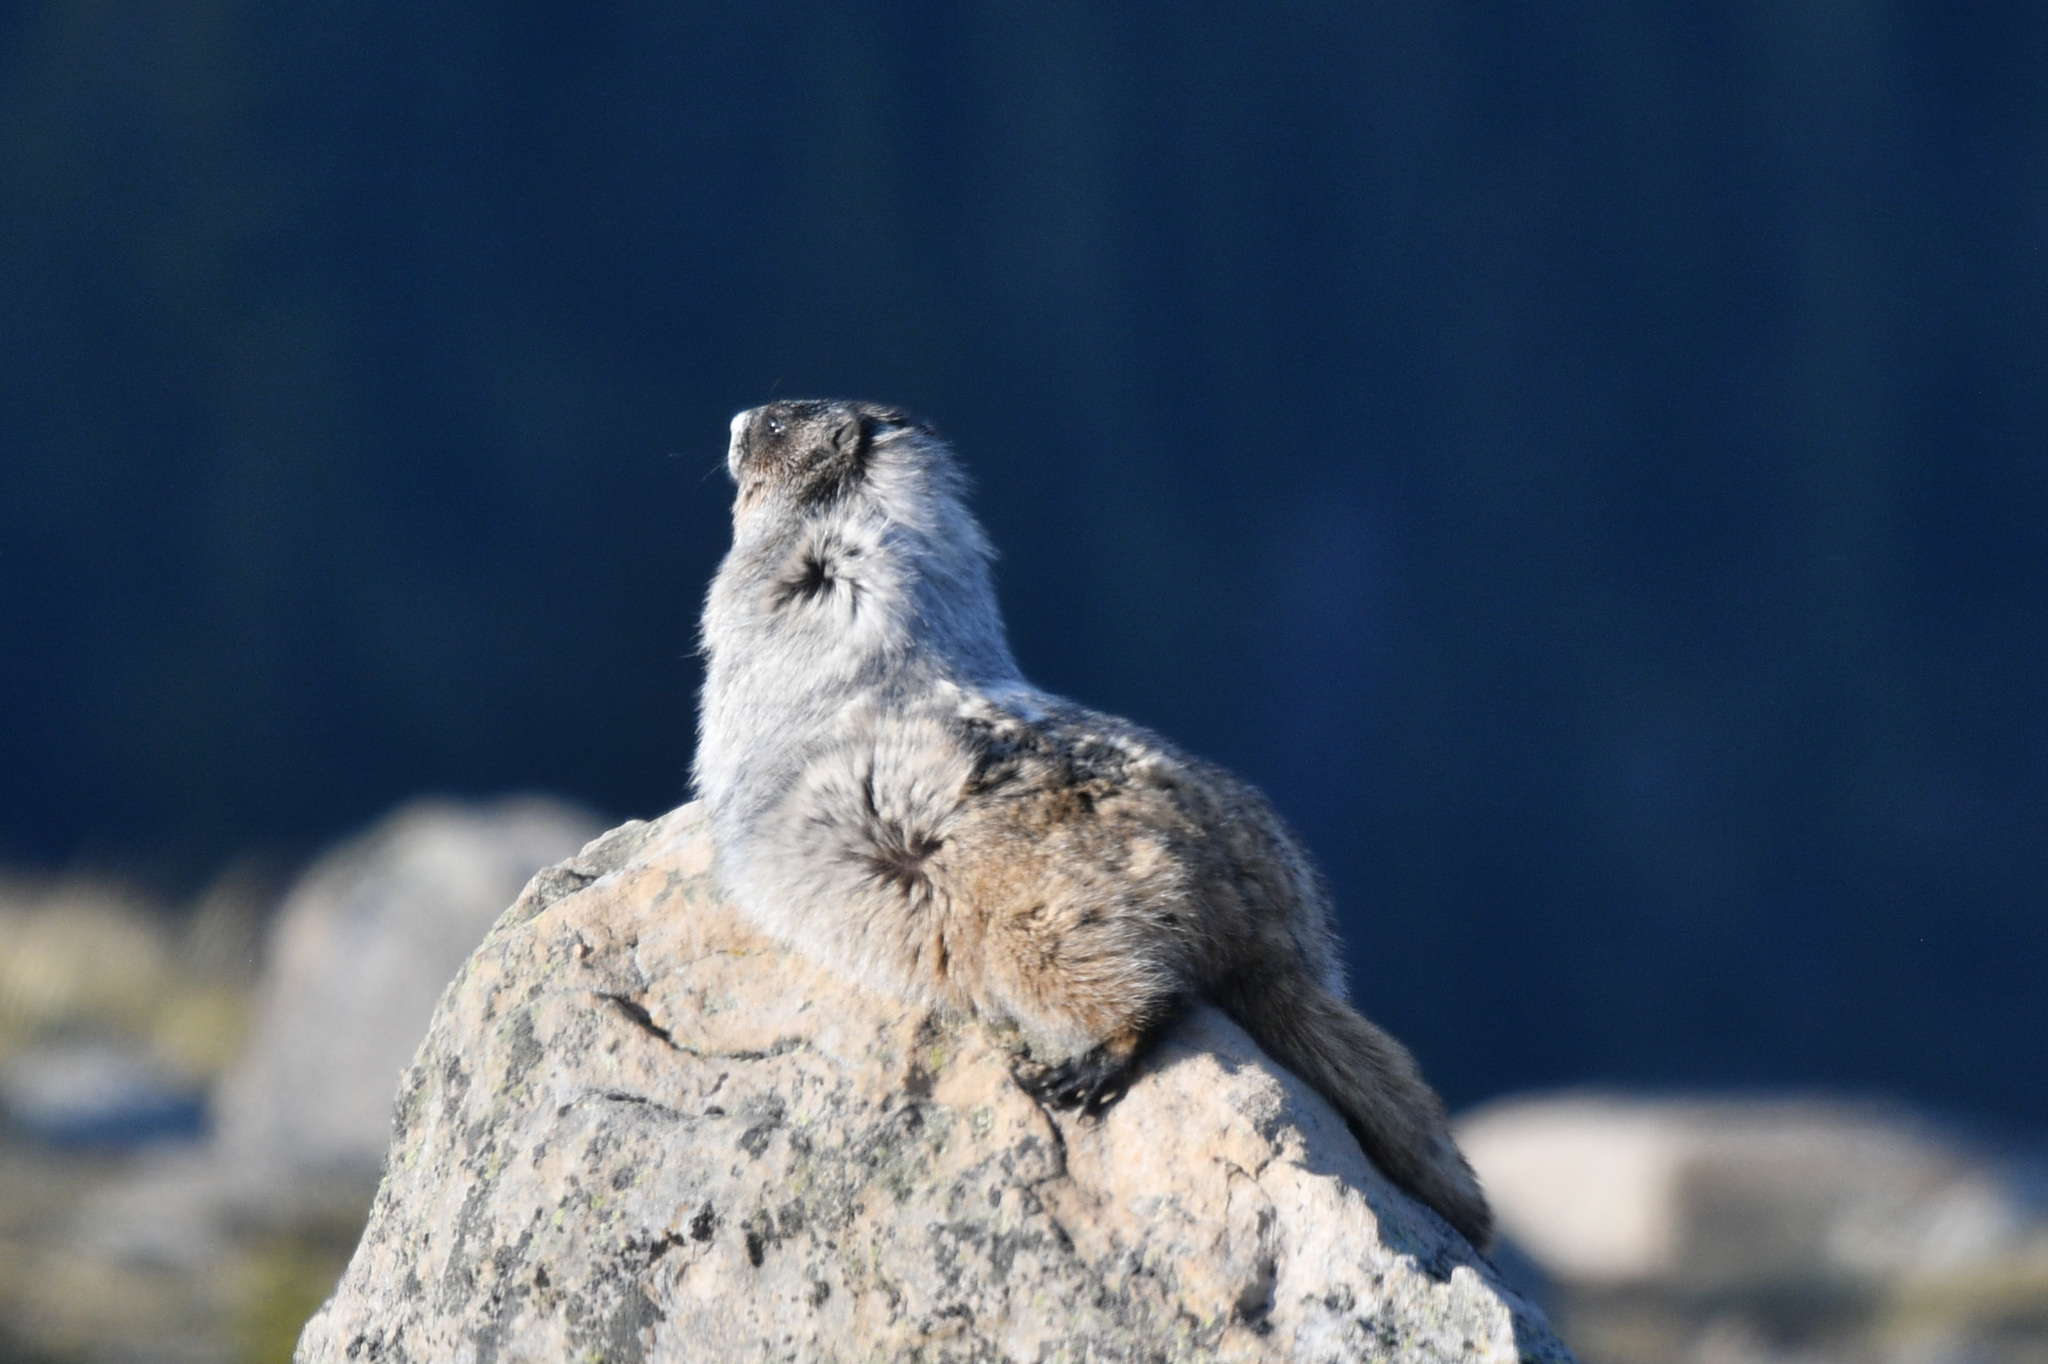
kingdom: Animalia
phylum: Chordata
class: Mammalia
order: Rodentia
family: Sciuridae
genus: Marmota
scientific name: Marmota caligata
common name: Hoary marmot
